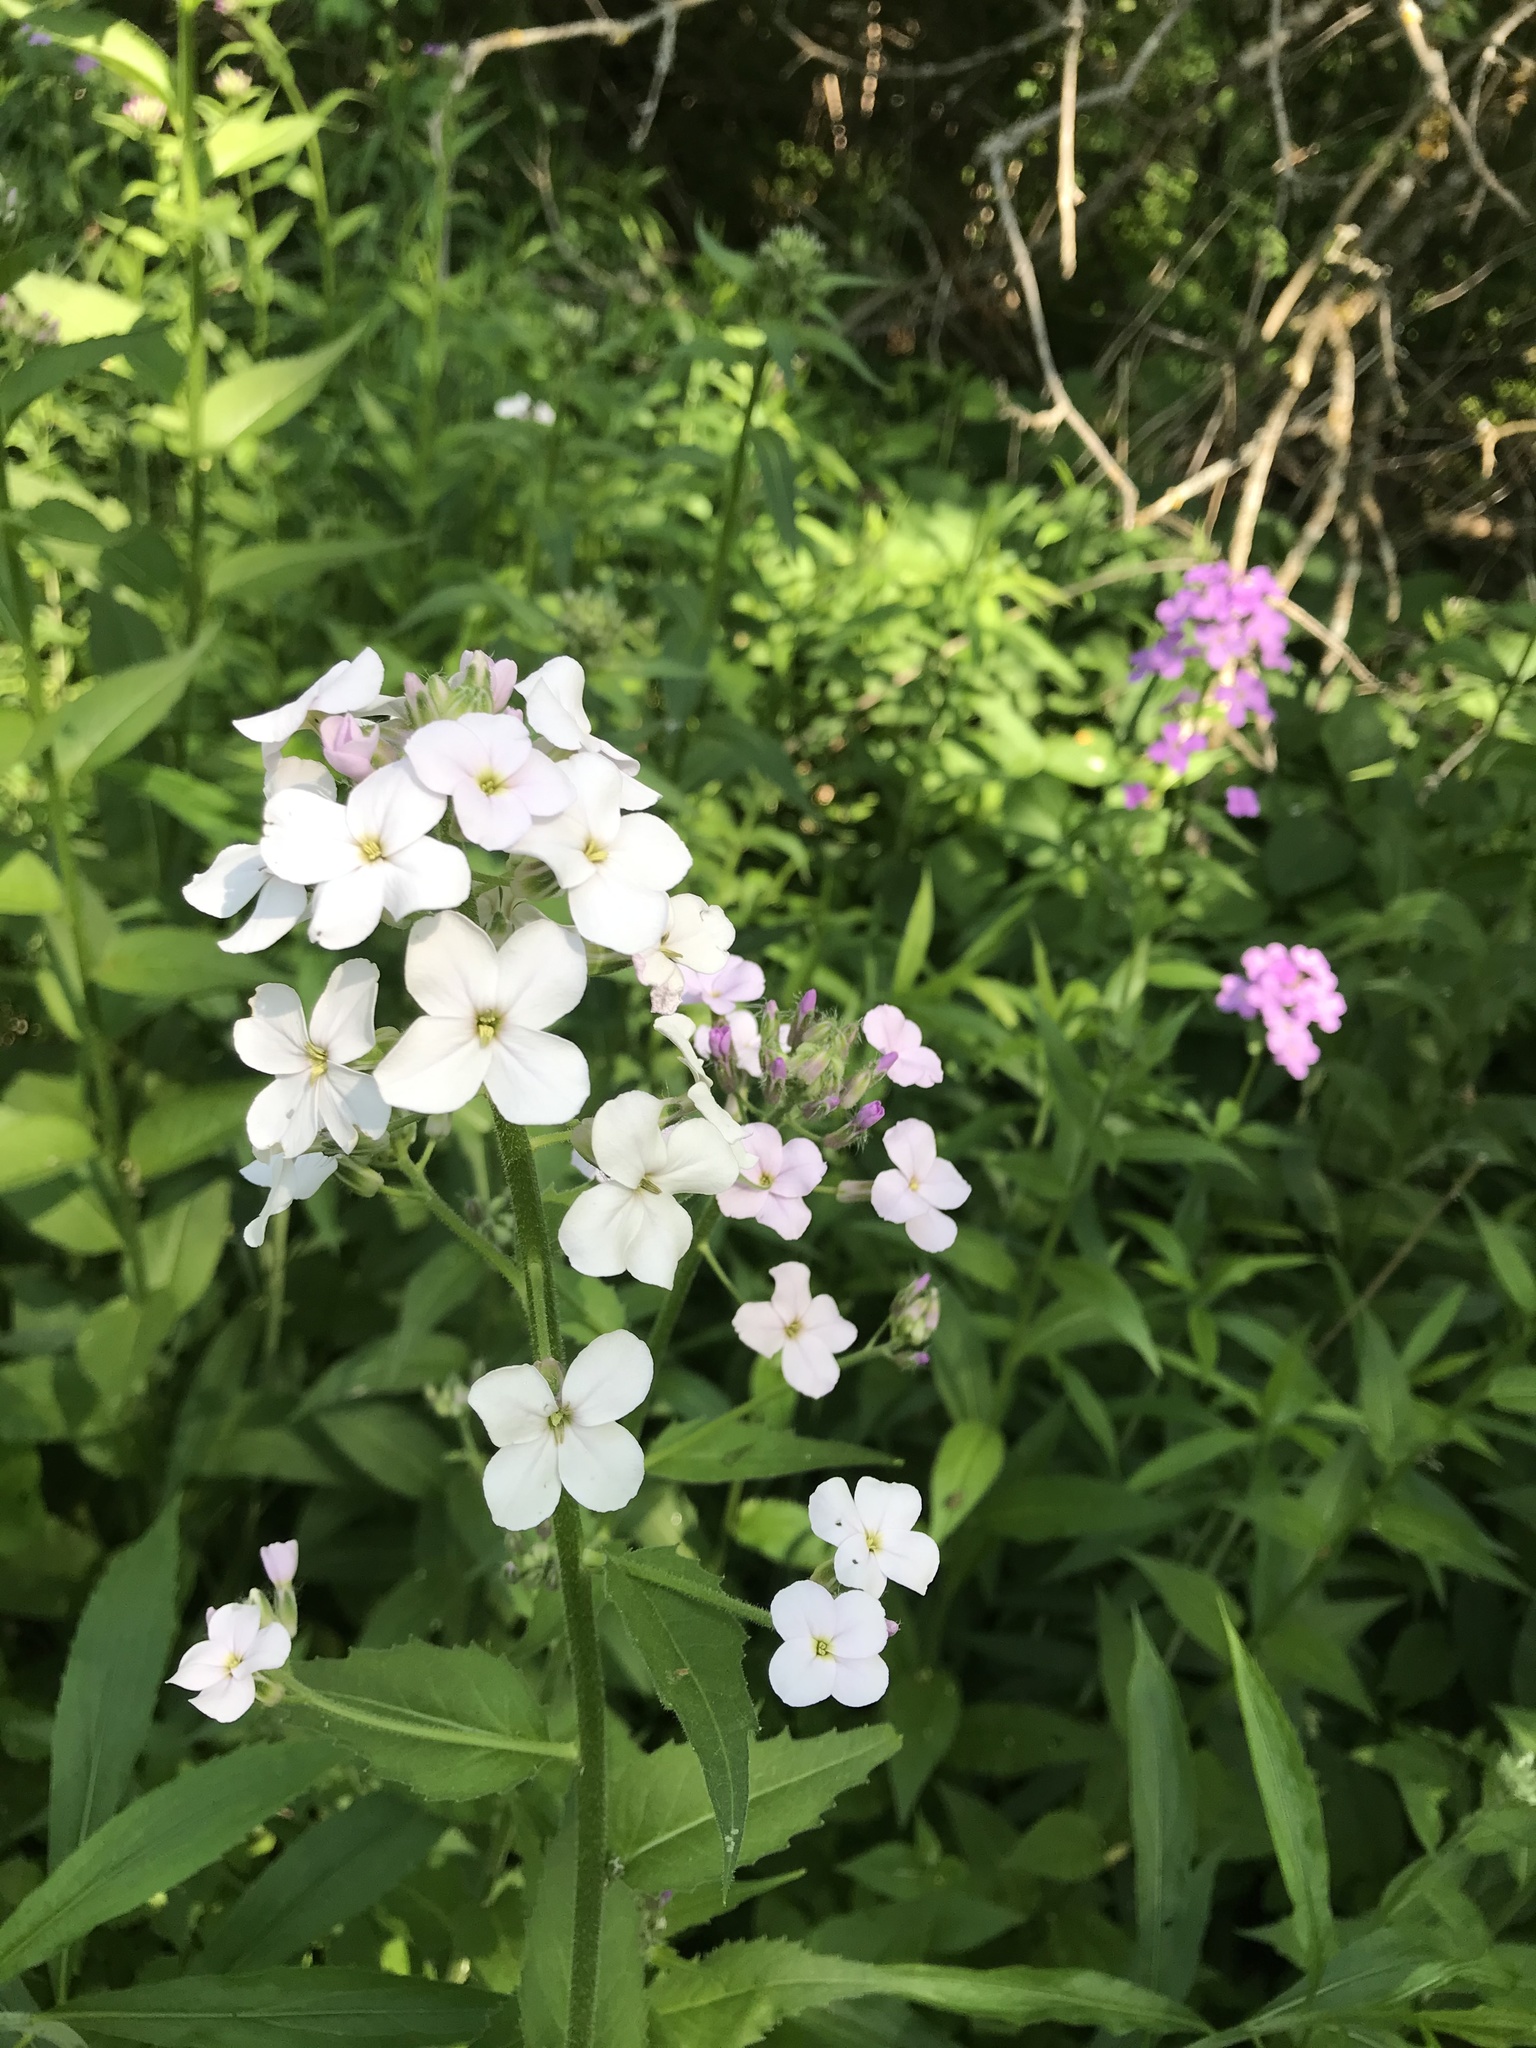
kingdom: Plantae
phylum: Tracheophyta
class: Magnoliopsida
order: Brassicales
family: Brassicaceae
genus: Hesperis
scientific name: Hesperis matronalis
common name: Dame's-violet
